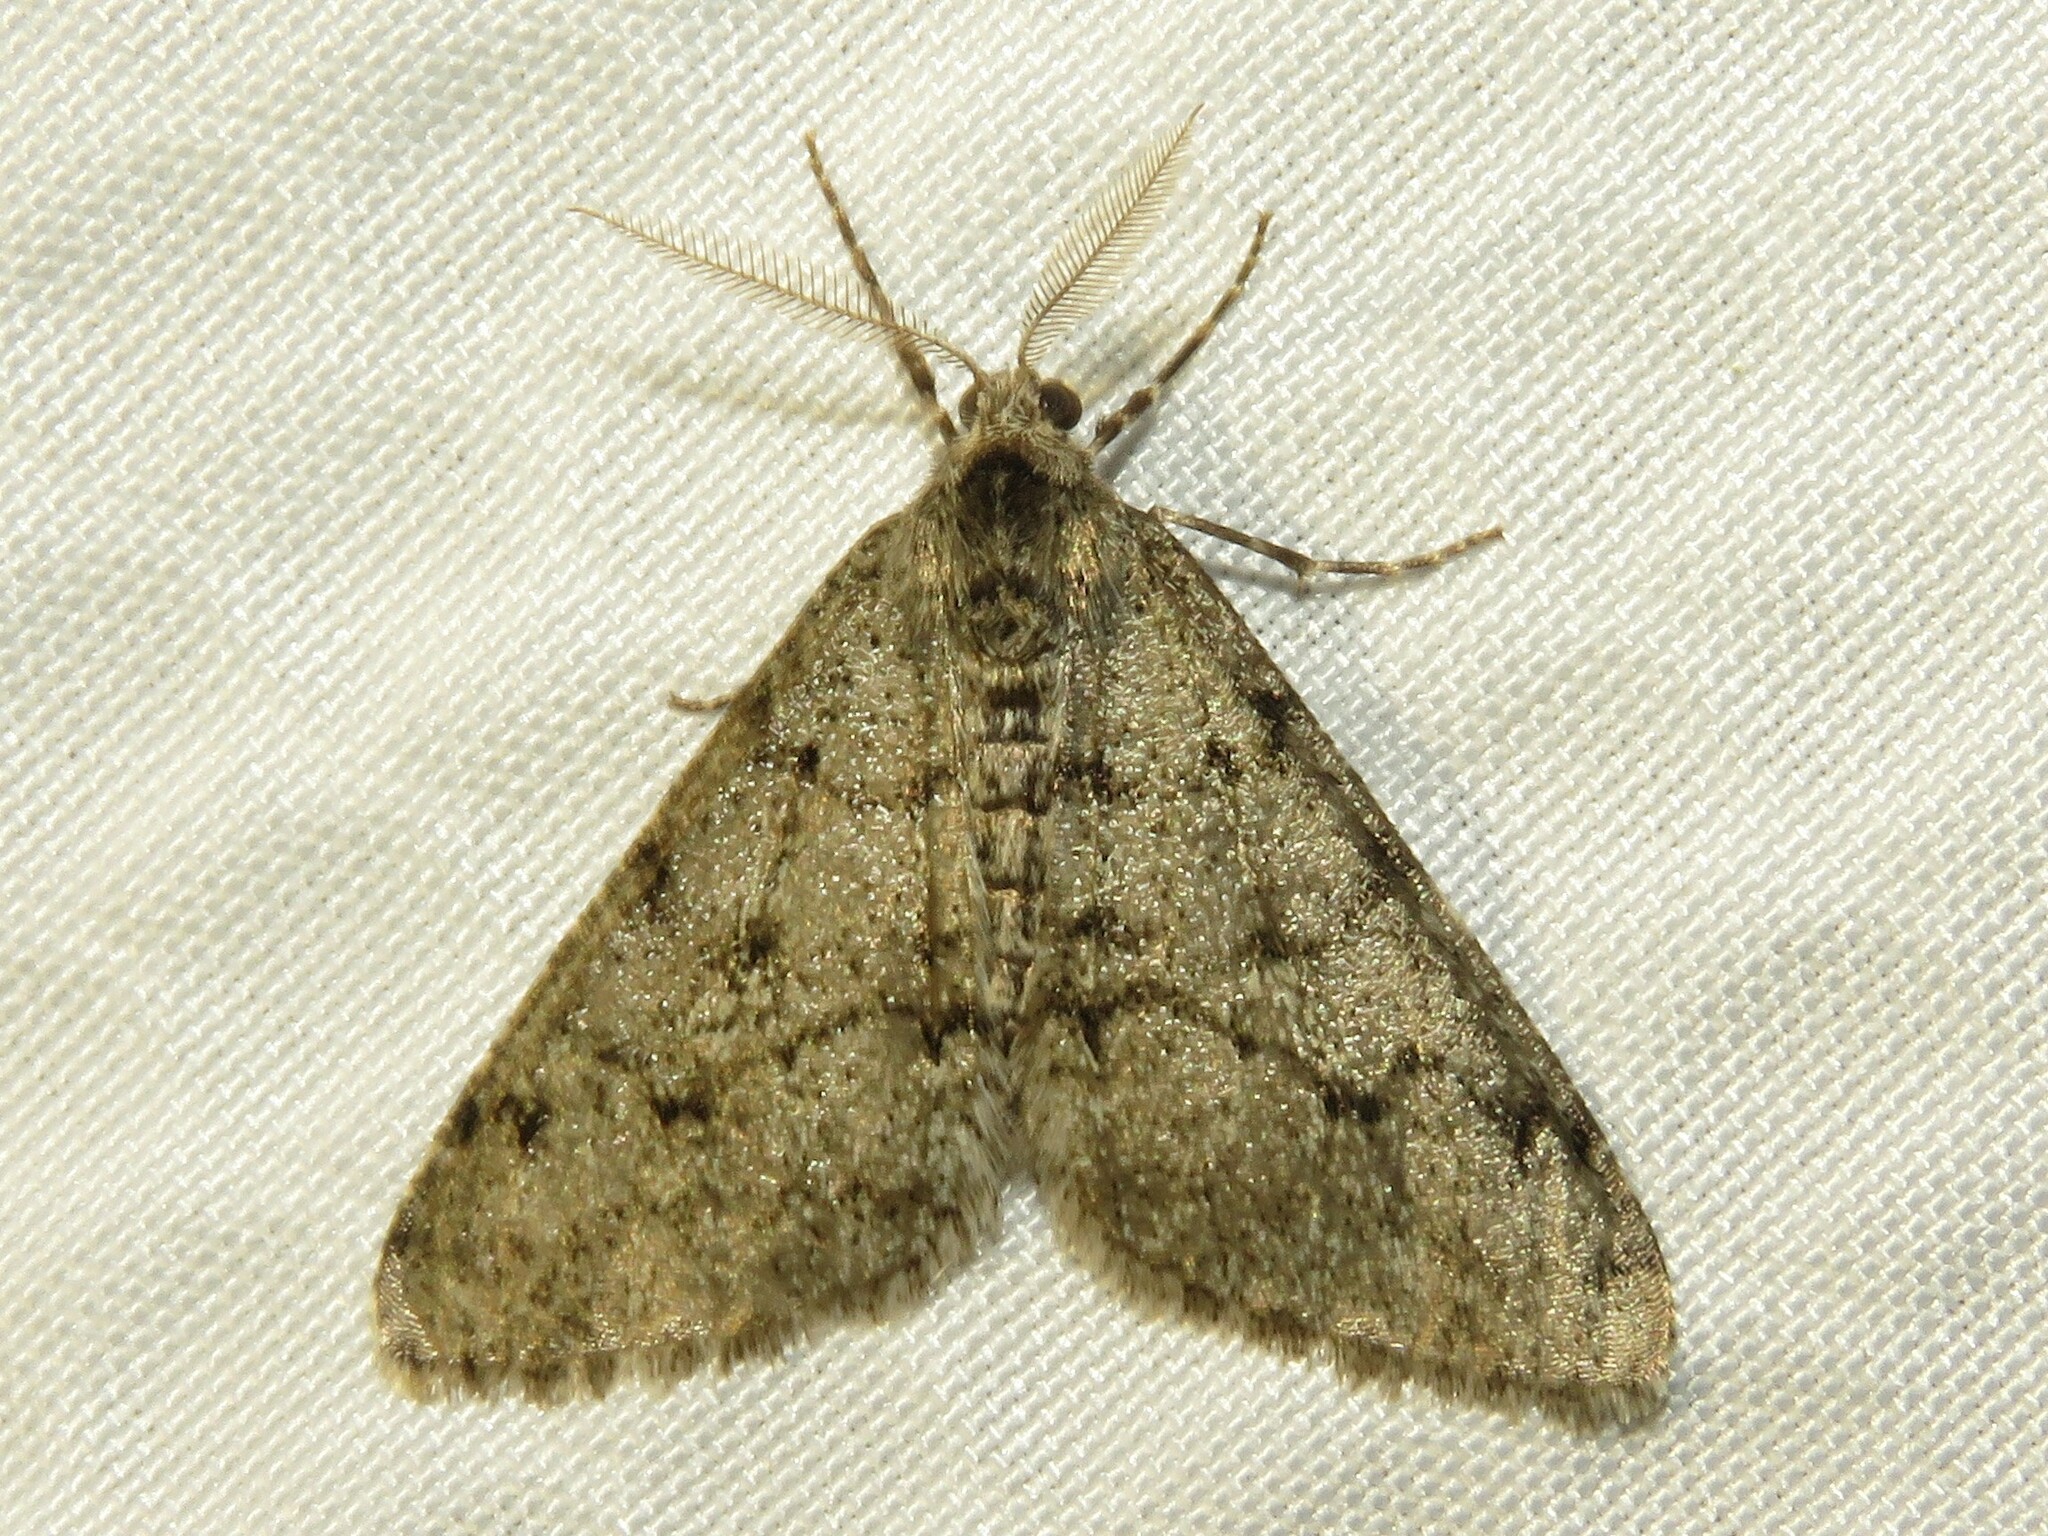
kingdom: Animalia
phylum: Arthropoda
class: Insecta
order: Lepidoptera
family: Geometridae
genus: Phigalia
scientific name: Phigalia strigataria
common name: Small phigalia
